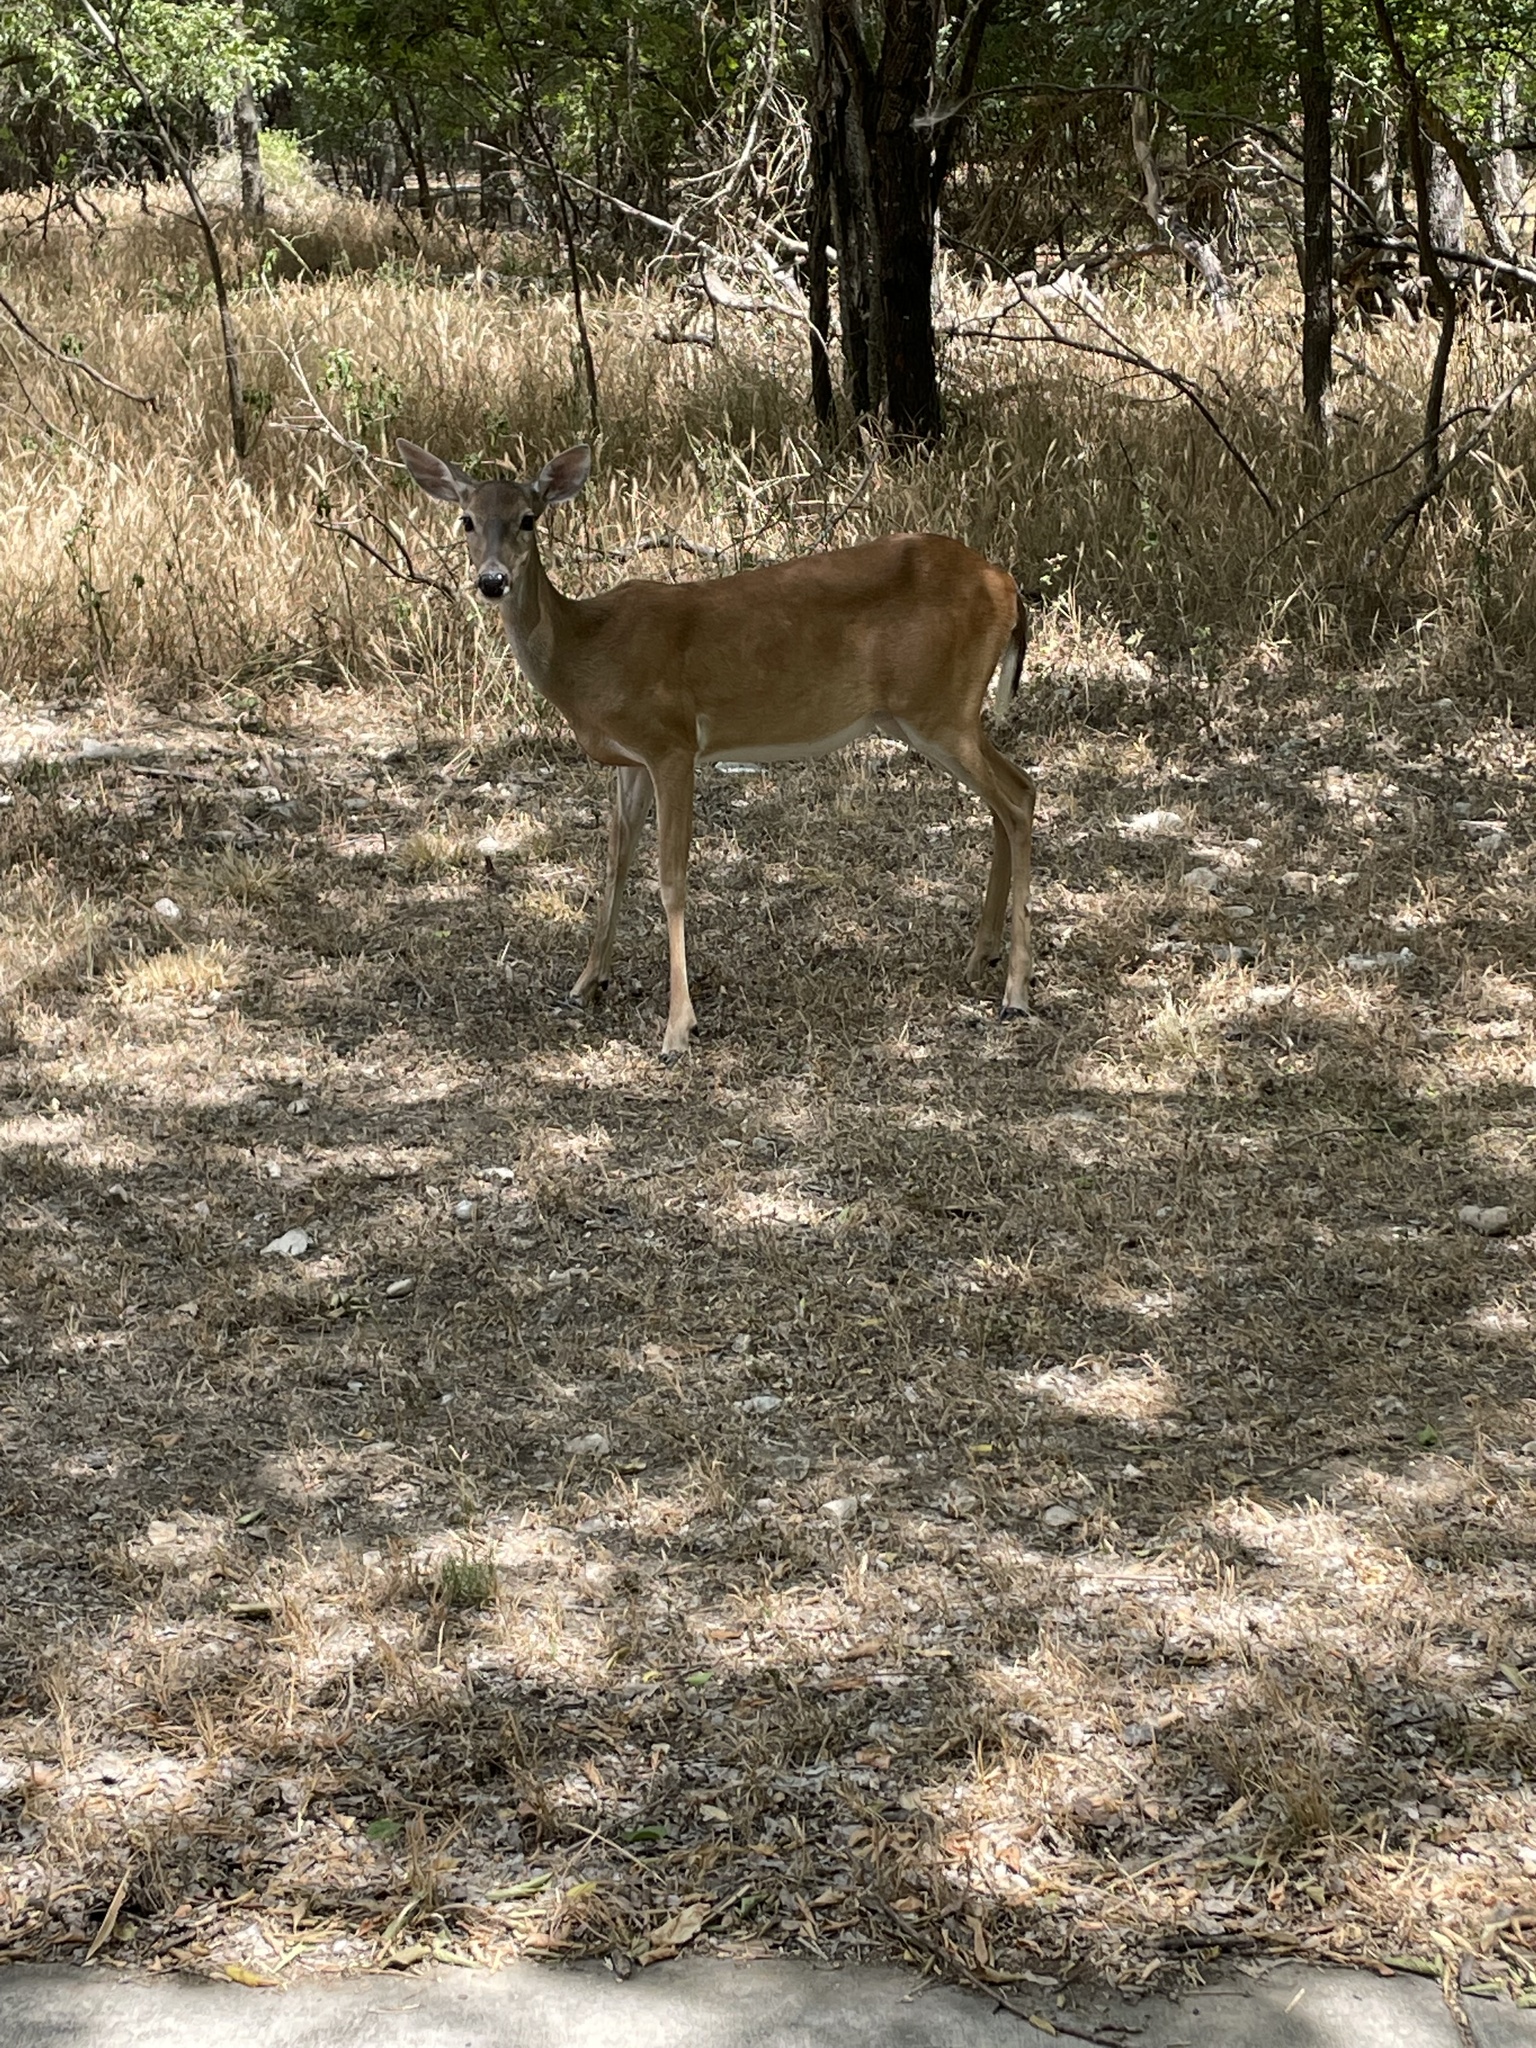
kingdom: Animalia
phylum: Chordata
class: Mammalia
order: Artiodactyla
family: Cervidae
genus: Odocoileus
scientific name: Odocoileus virginianus
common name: White-tailed deer
